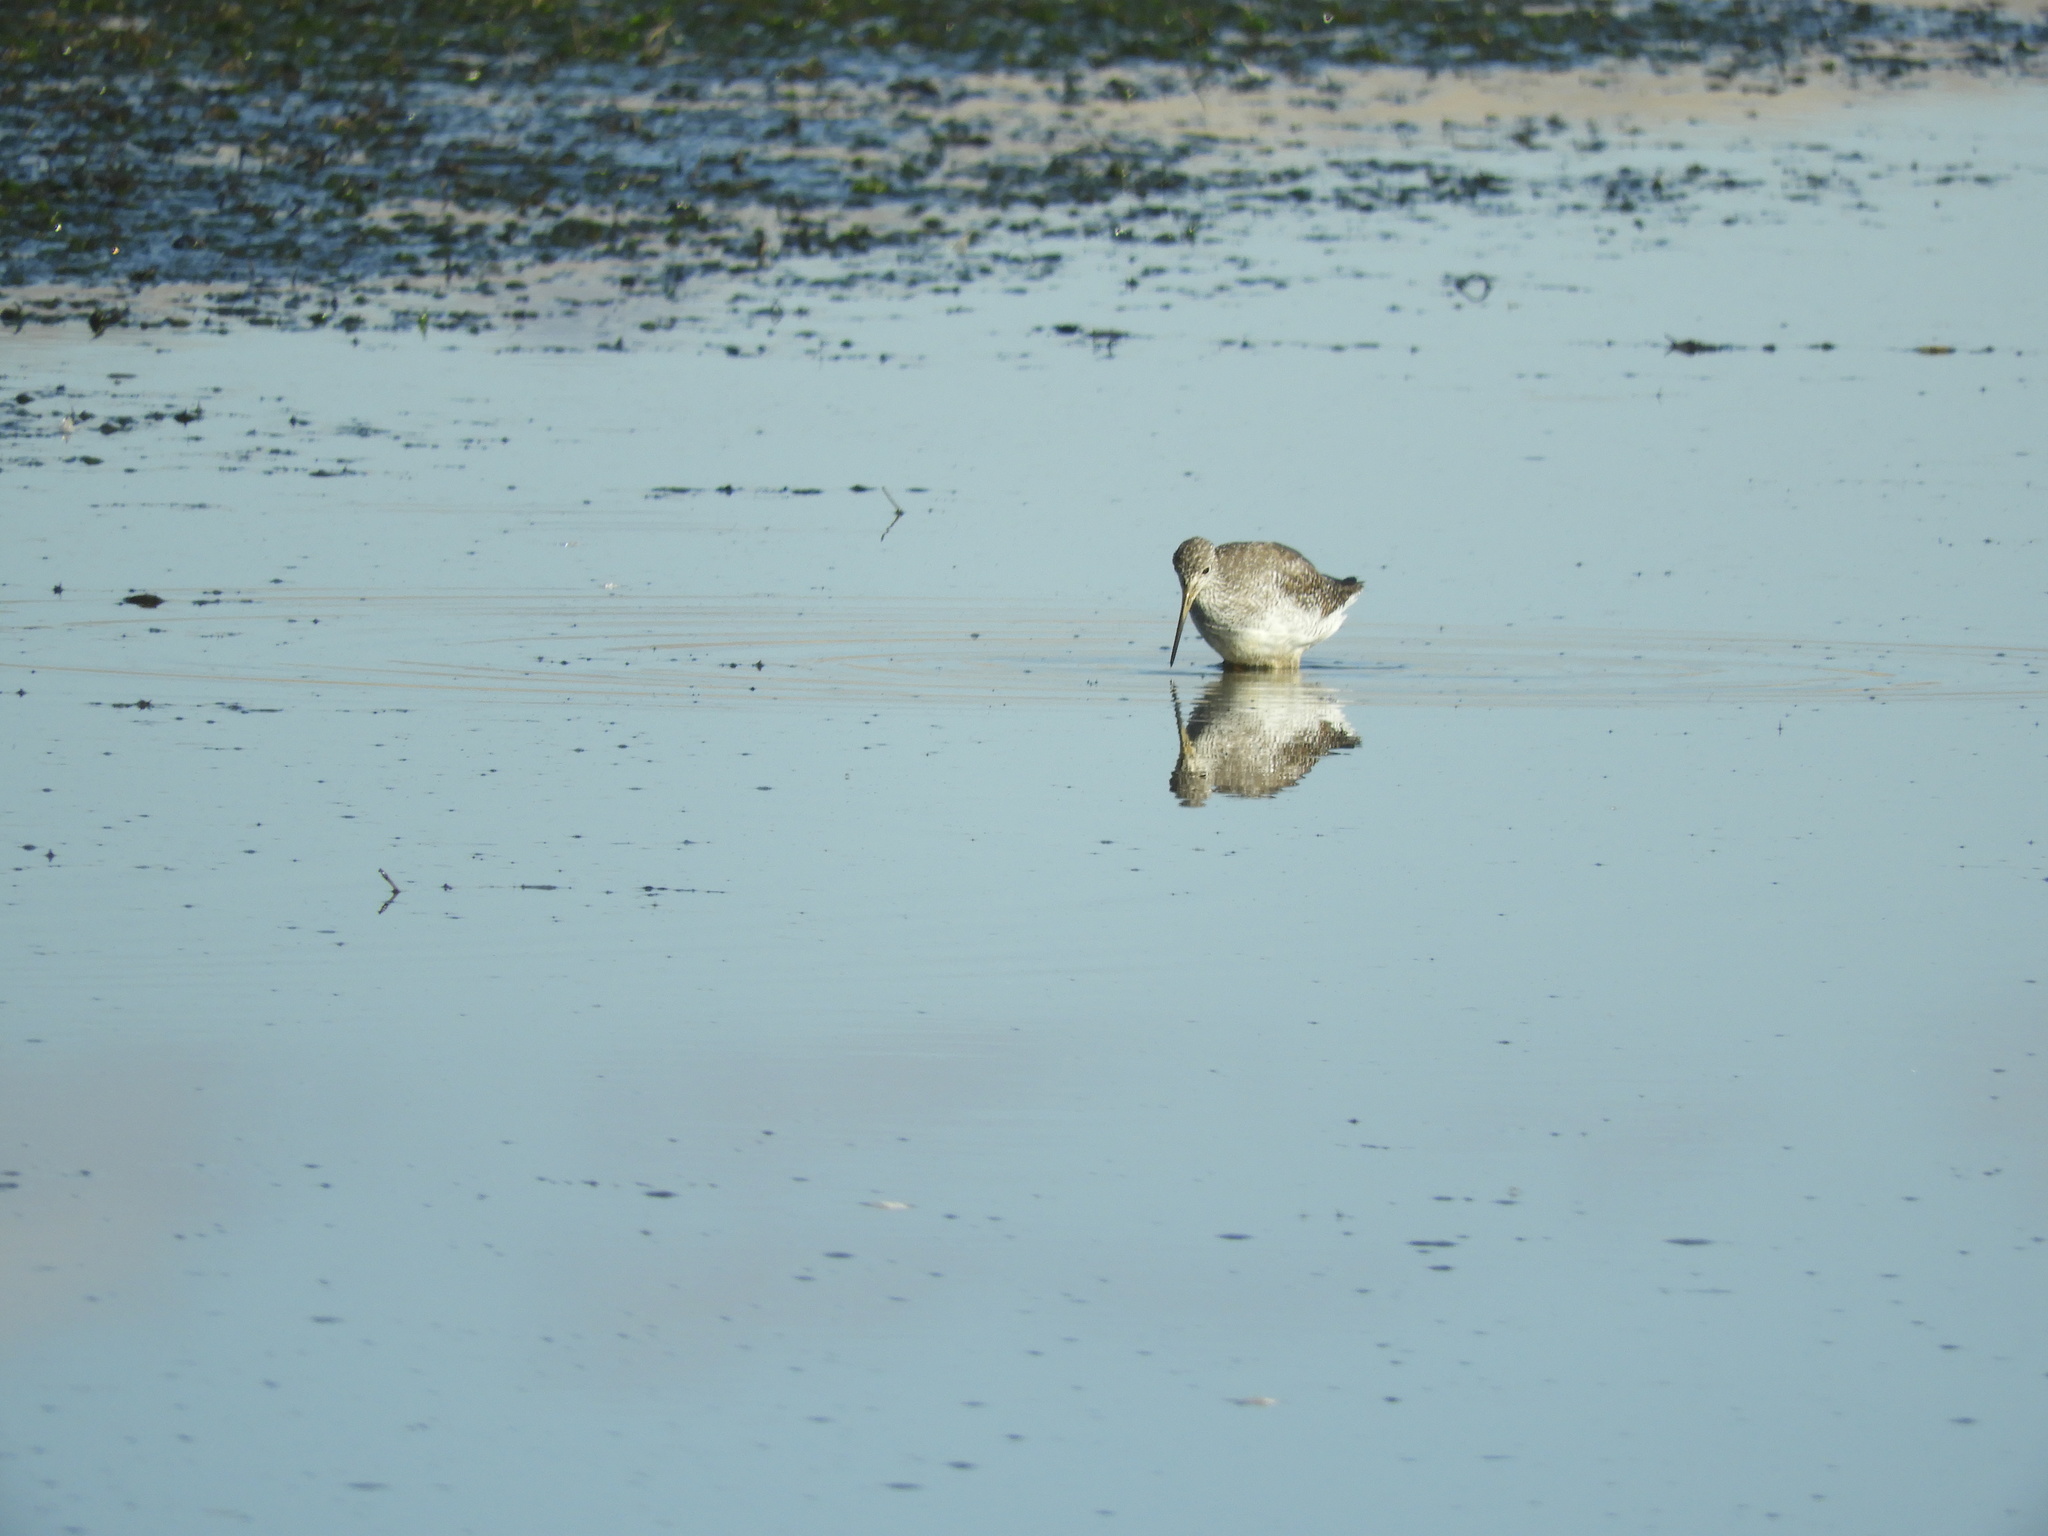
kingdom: Animalia
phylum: Chordata
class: Aves
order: Charadriiformes
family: Scolopacidae
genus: Tringa
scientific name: Tringa melanoleuca
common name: Greater yellowlegs
